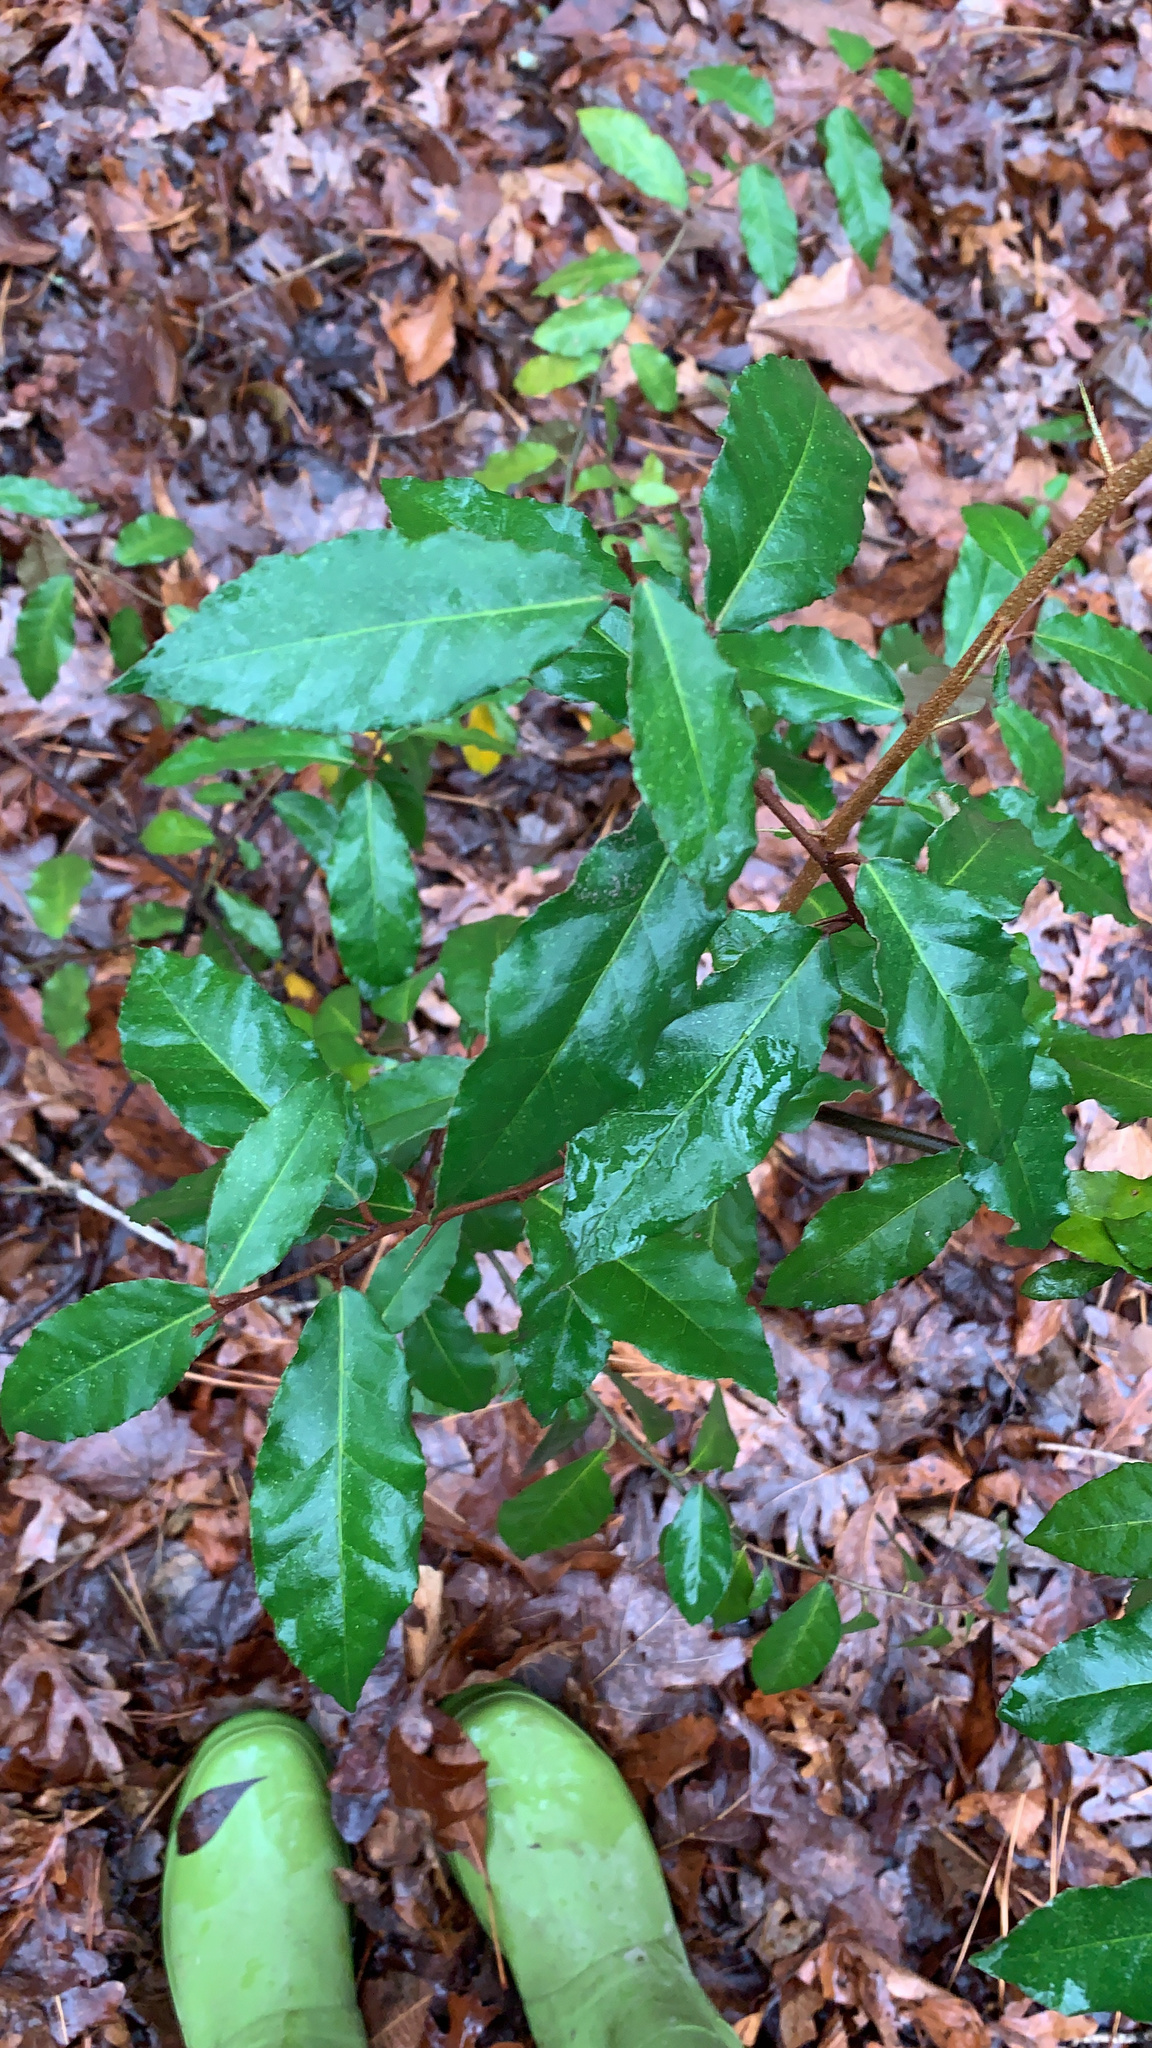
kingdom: Plantae
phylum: Tracheophyta
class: Magnoliopsida
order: Rosales
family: Elaeagnaceae
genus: Elaeagnus
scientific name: Elaeagnus pungens
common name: Spiny oleaster
